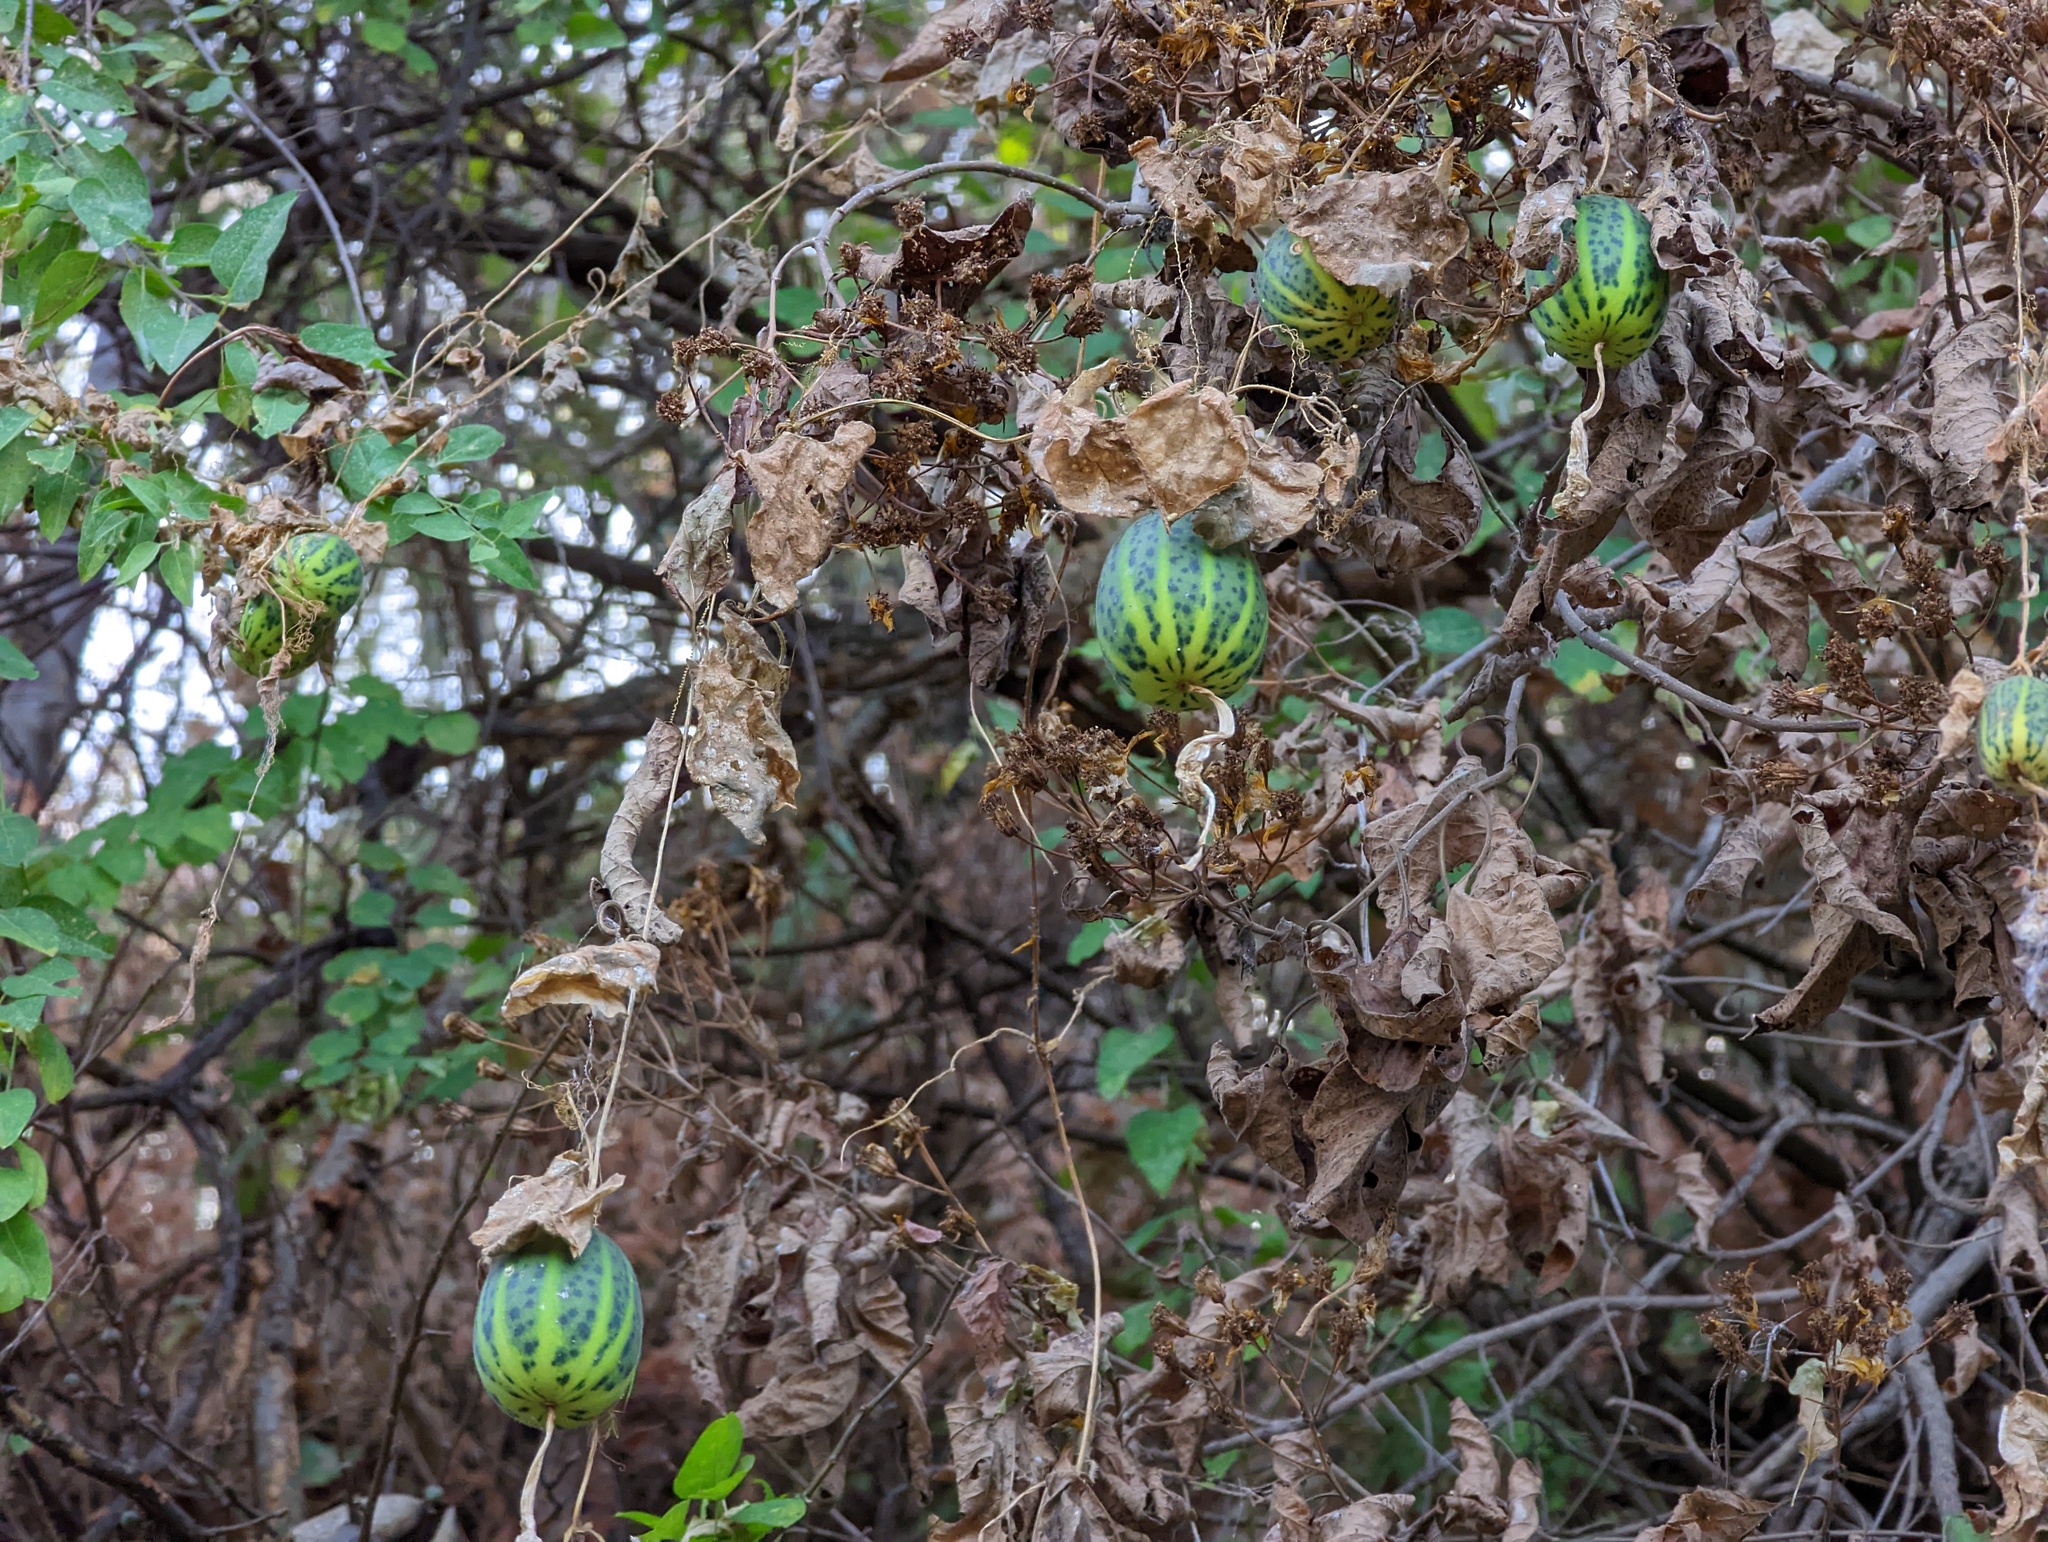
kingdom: Plantae
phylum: Tracheophyta
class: Magnoliopsida
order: Cucurbitales
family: Cucurbitaceae
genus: Polyclathra
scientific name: Polyclathra cucumerina
